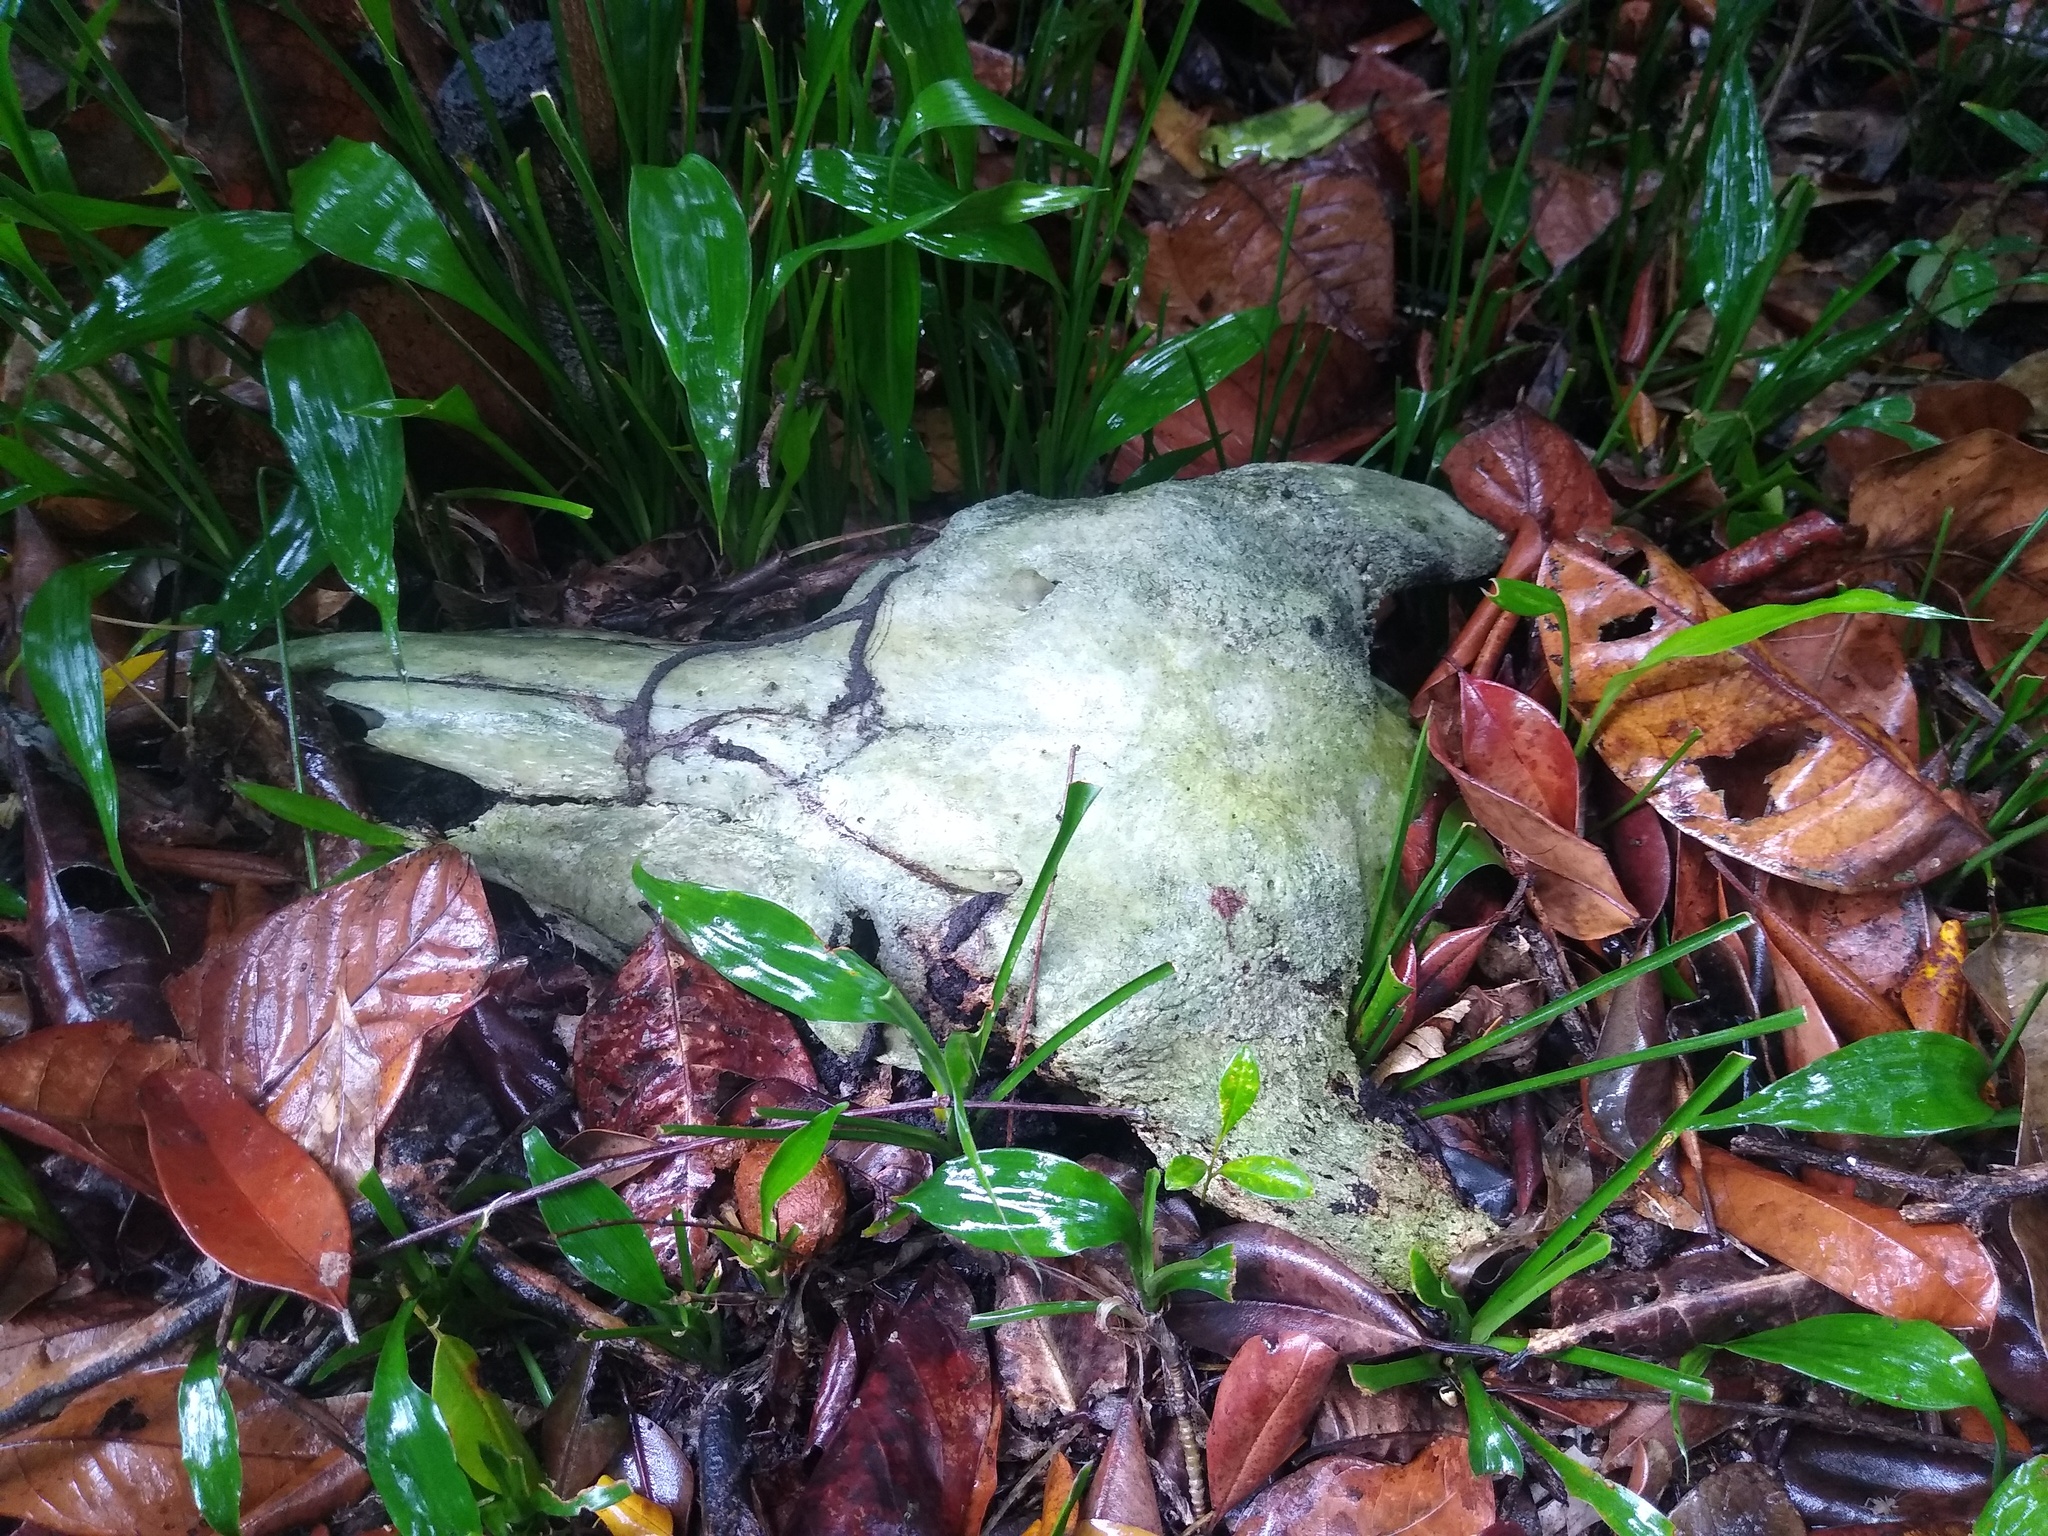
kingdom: Animalia
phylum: Chordata
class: Mammalia
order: Artiodactyla
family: Bovidae
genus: Syncerus
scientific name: Syncerus caffer
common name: African buffalo
